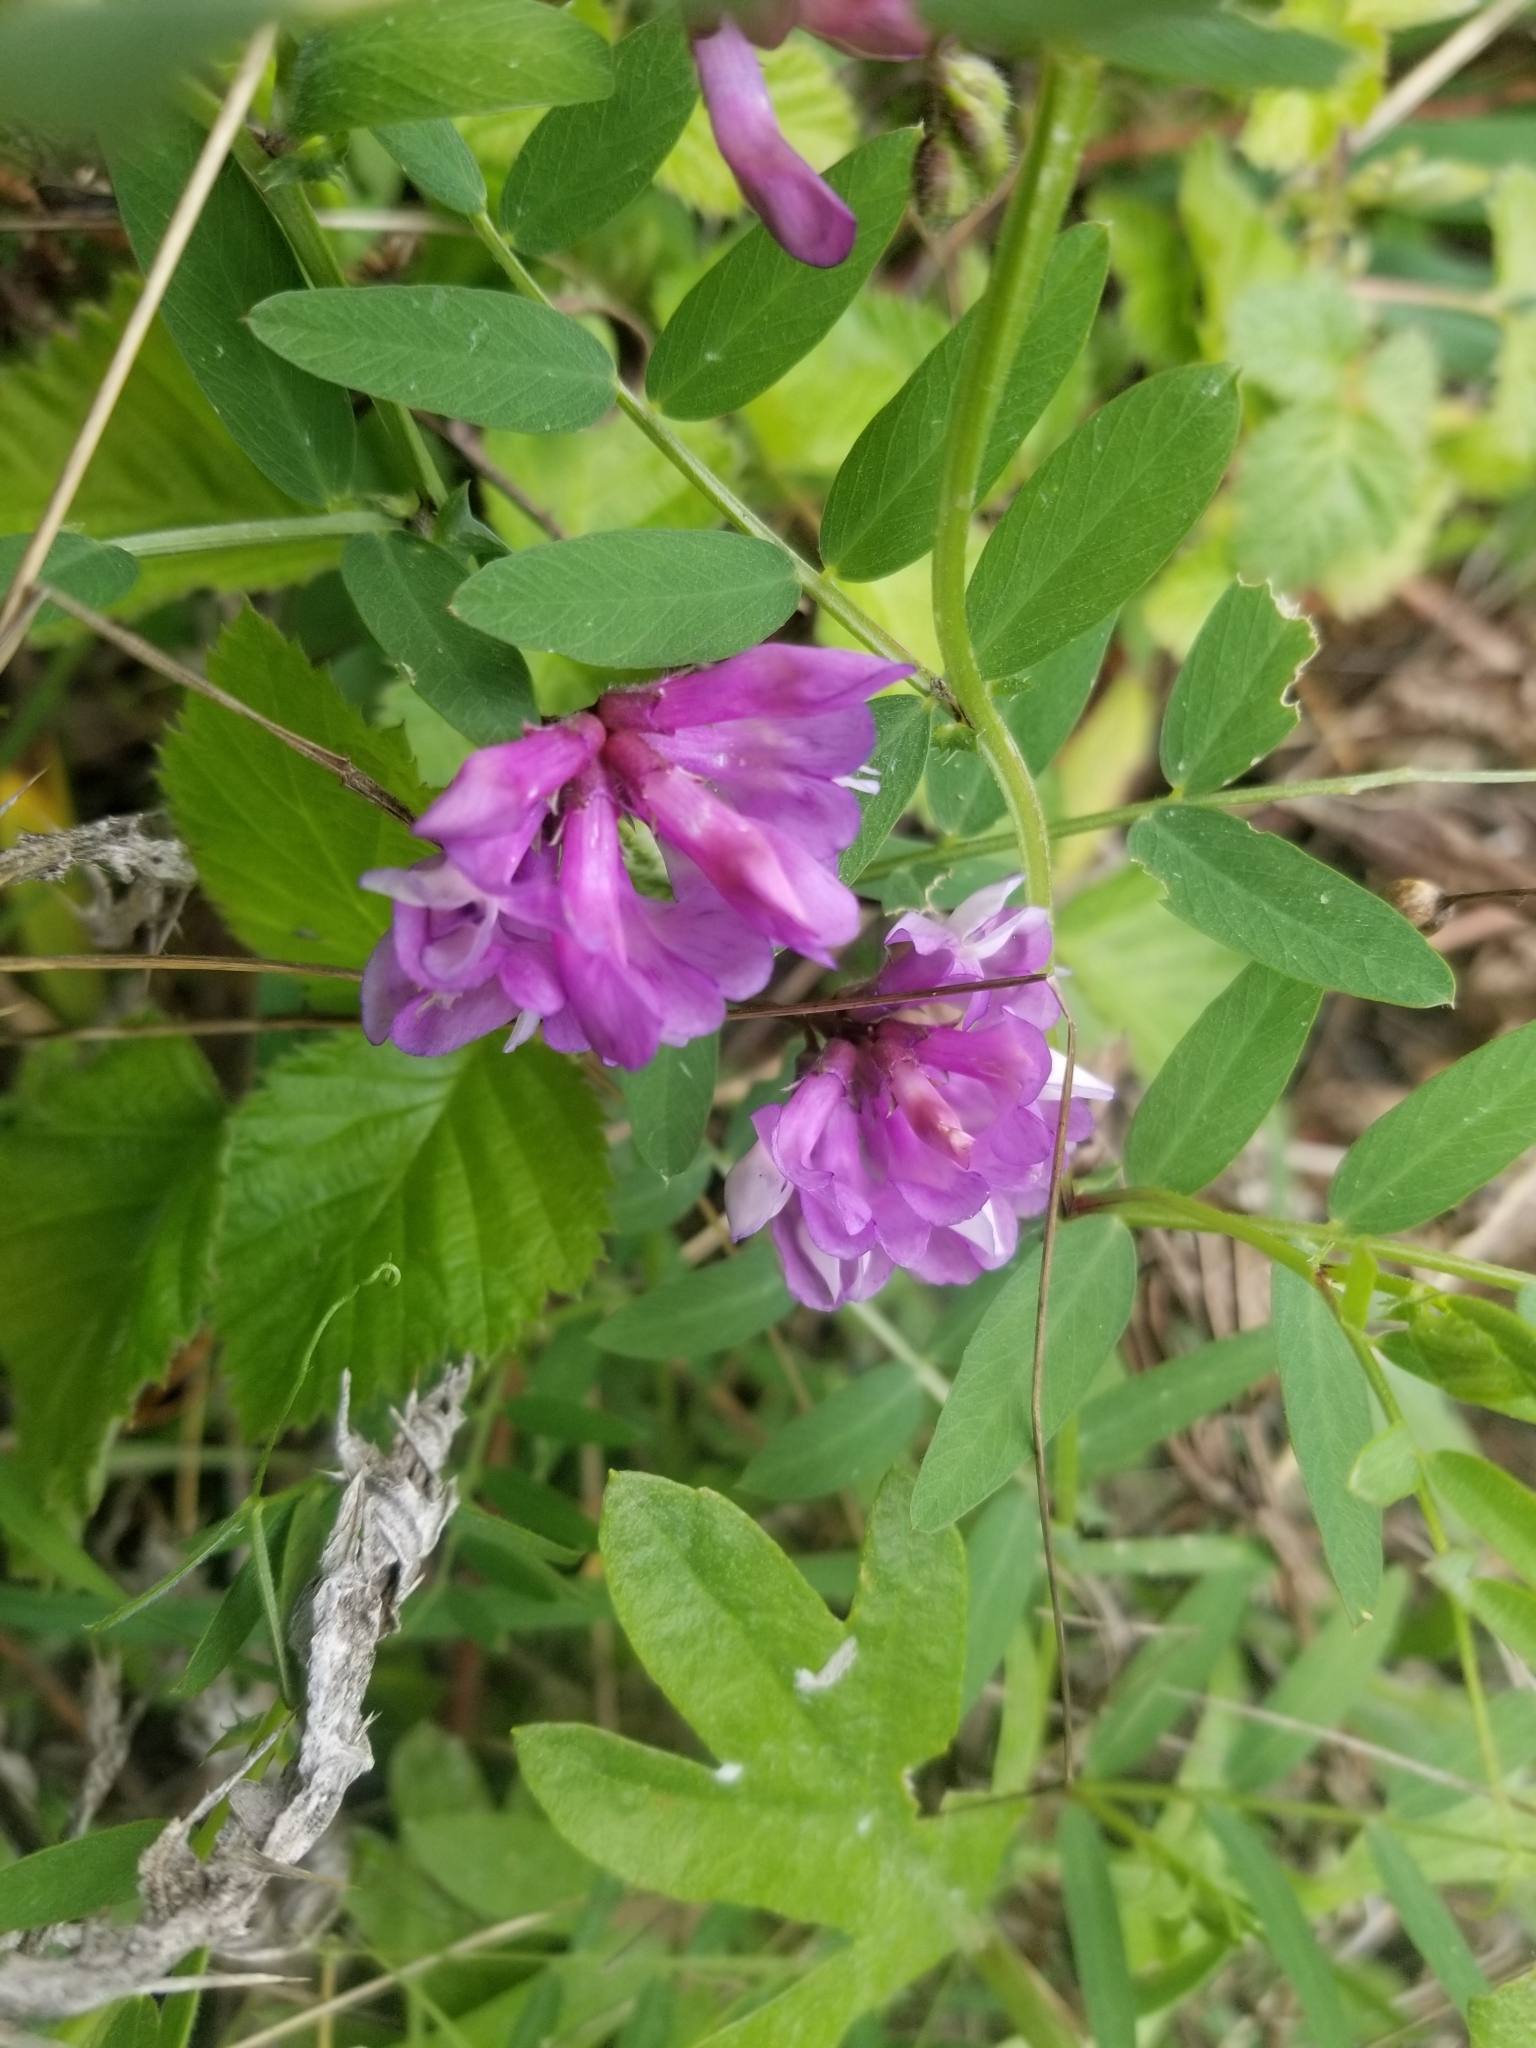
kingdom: Plantae
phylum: Tracheophyta
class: Magnoliopsida
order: Fabales
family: Fabaceae
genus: Vicia
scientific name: Vicia americana
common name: American vetch
